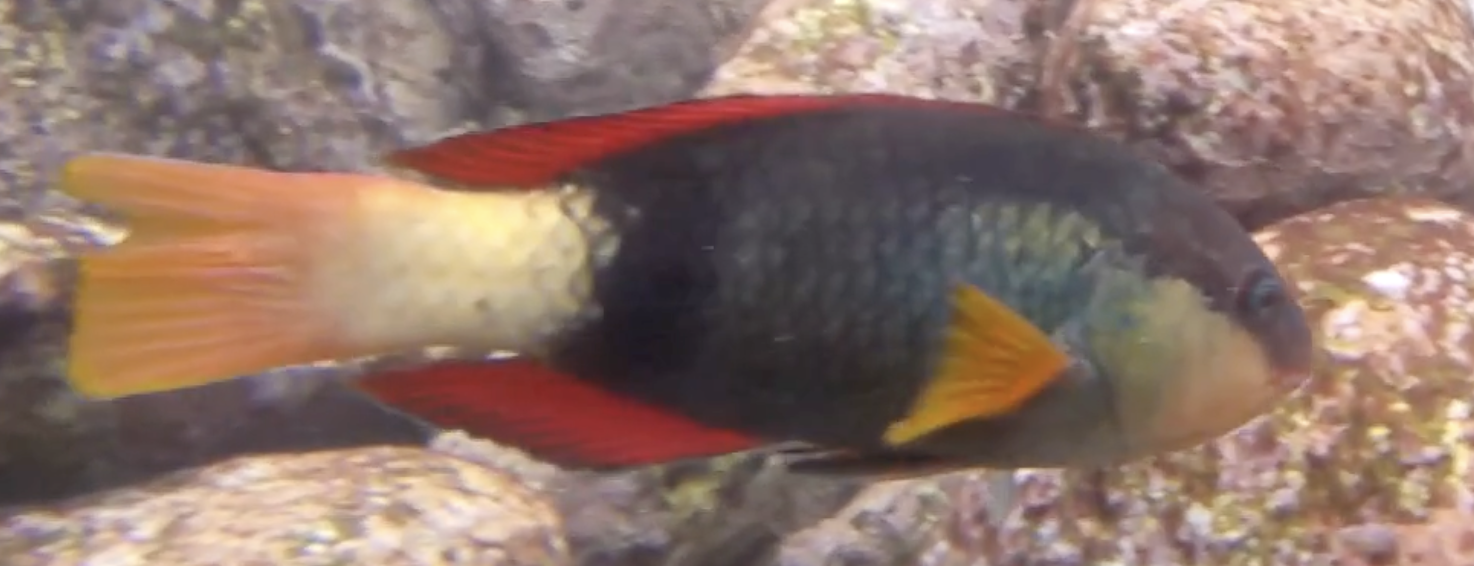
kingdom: Animalia
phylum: Chordata
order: Perciformes
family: Labridae
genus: Notolabrus
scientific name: Notolabrus gymnogenis
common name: Crimson banded wrasse
